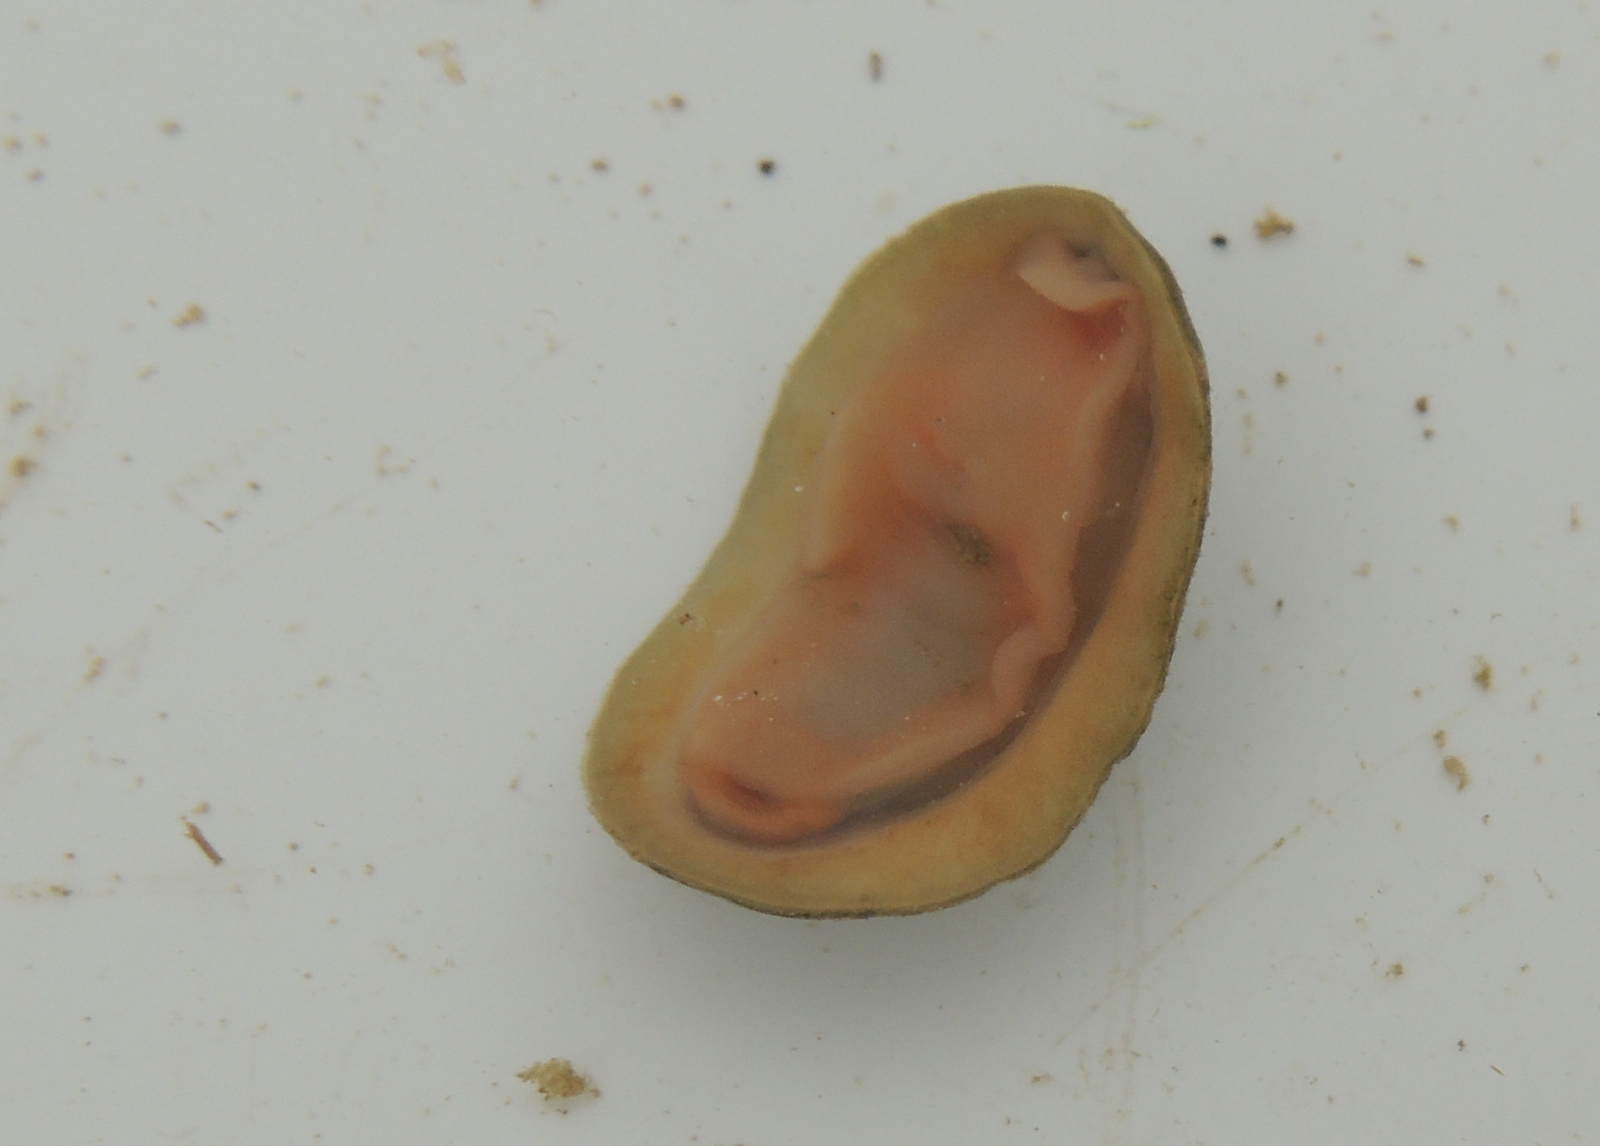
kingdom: Animalia
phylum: Mollusca
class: Polyplacophora
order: Chitonida
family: Tonicellidae
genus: Cyanoplax
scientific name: Cyanoplax hartwegii
